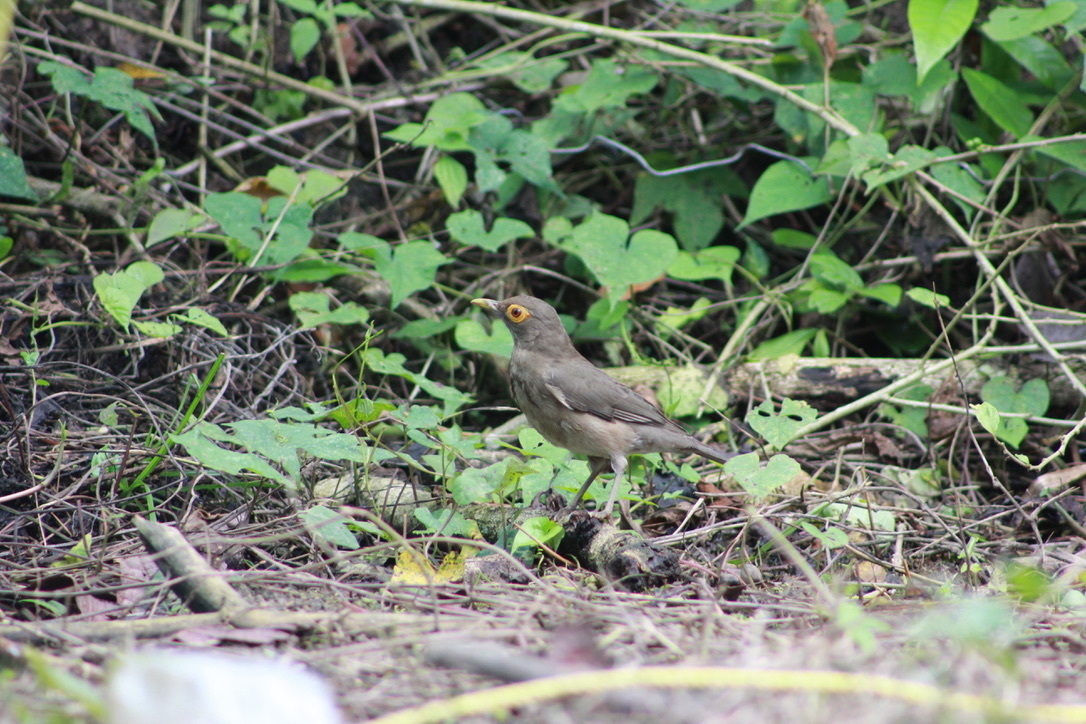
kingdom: Animalia
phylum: Chordata
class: Aves
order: Passeriformes
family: Turdidae
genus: Turdus
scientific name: Turdus nudigenis
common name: Spectacled thrush
